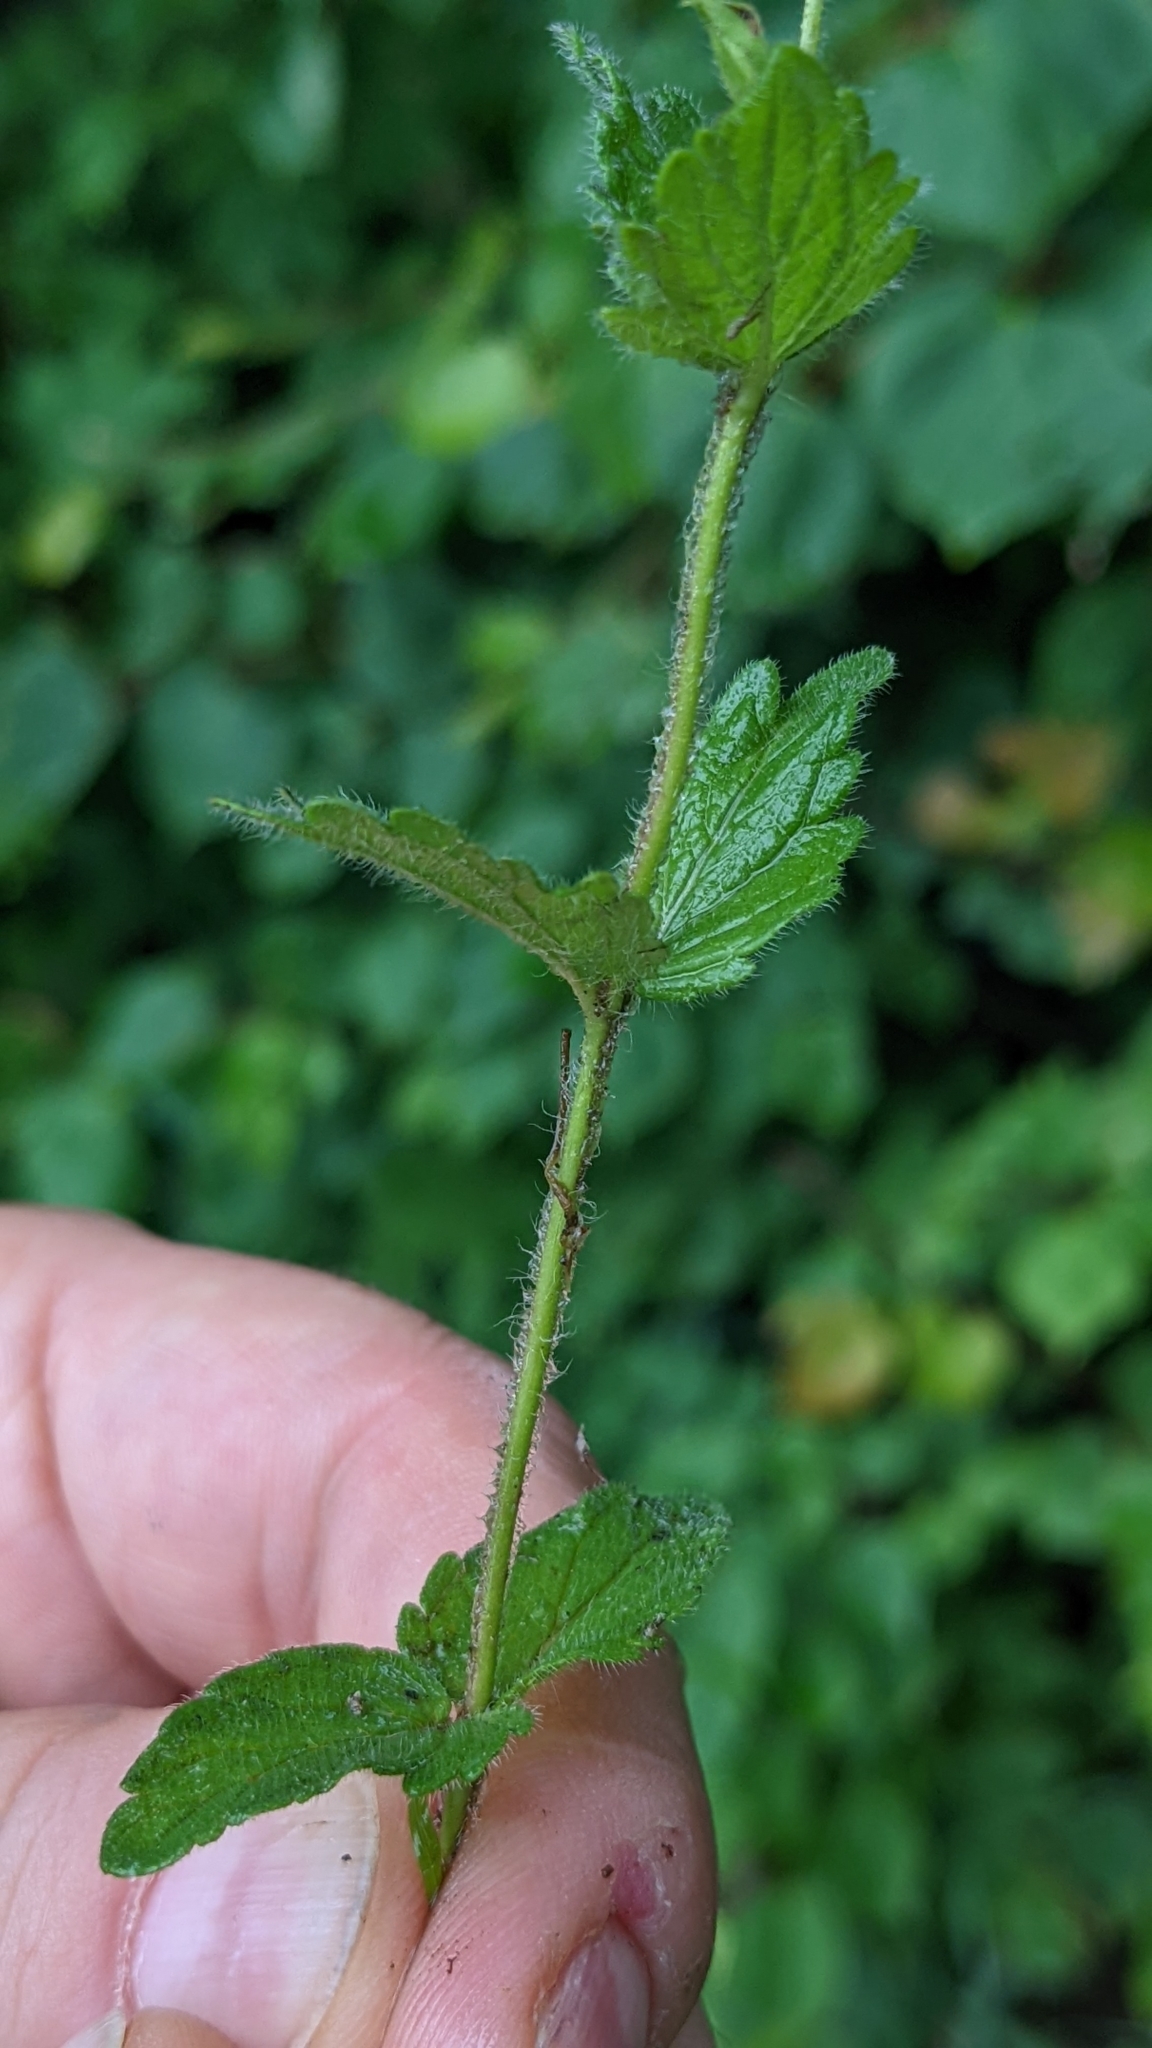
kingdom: Plantae
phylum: Tracheophyta
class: Magnoliopsida
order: Lamiales
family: Plantaginaceae
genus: Veronica
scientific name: Veronica chamaedrys
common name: Germander speedwell
